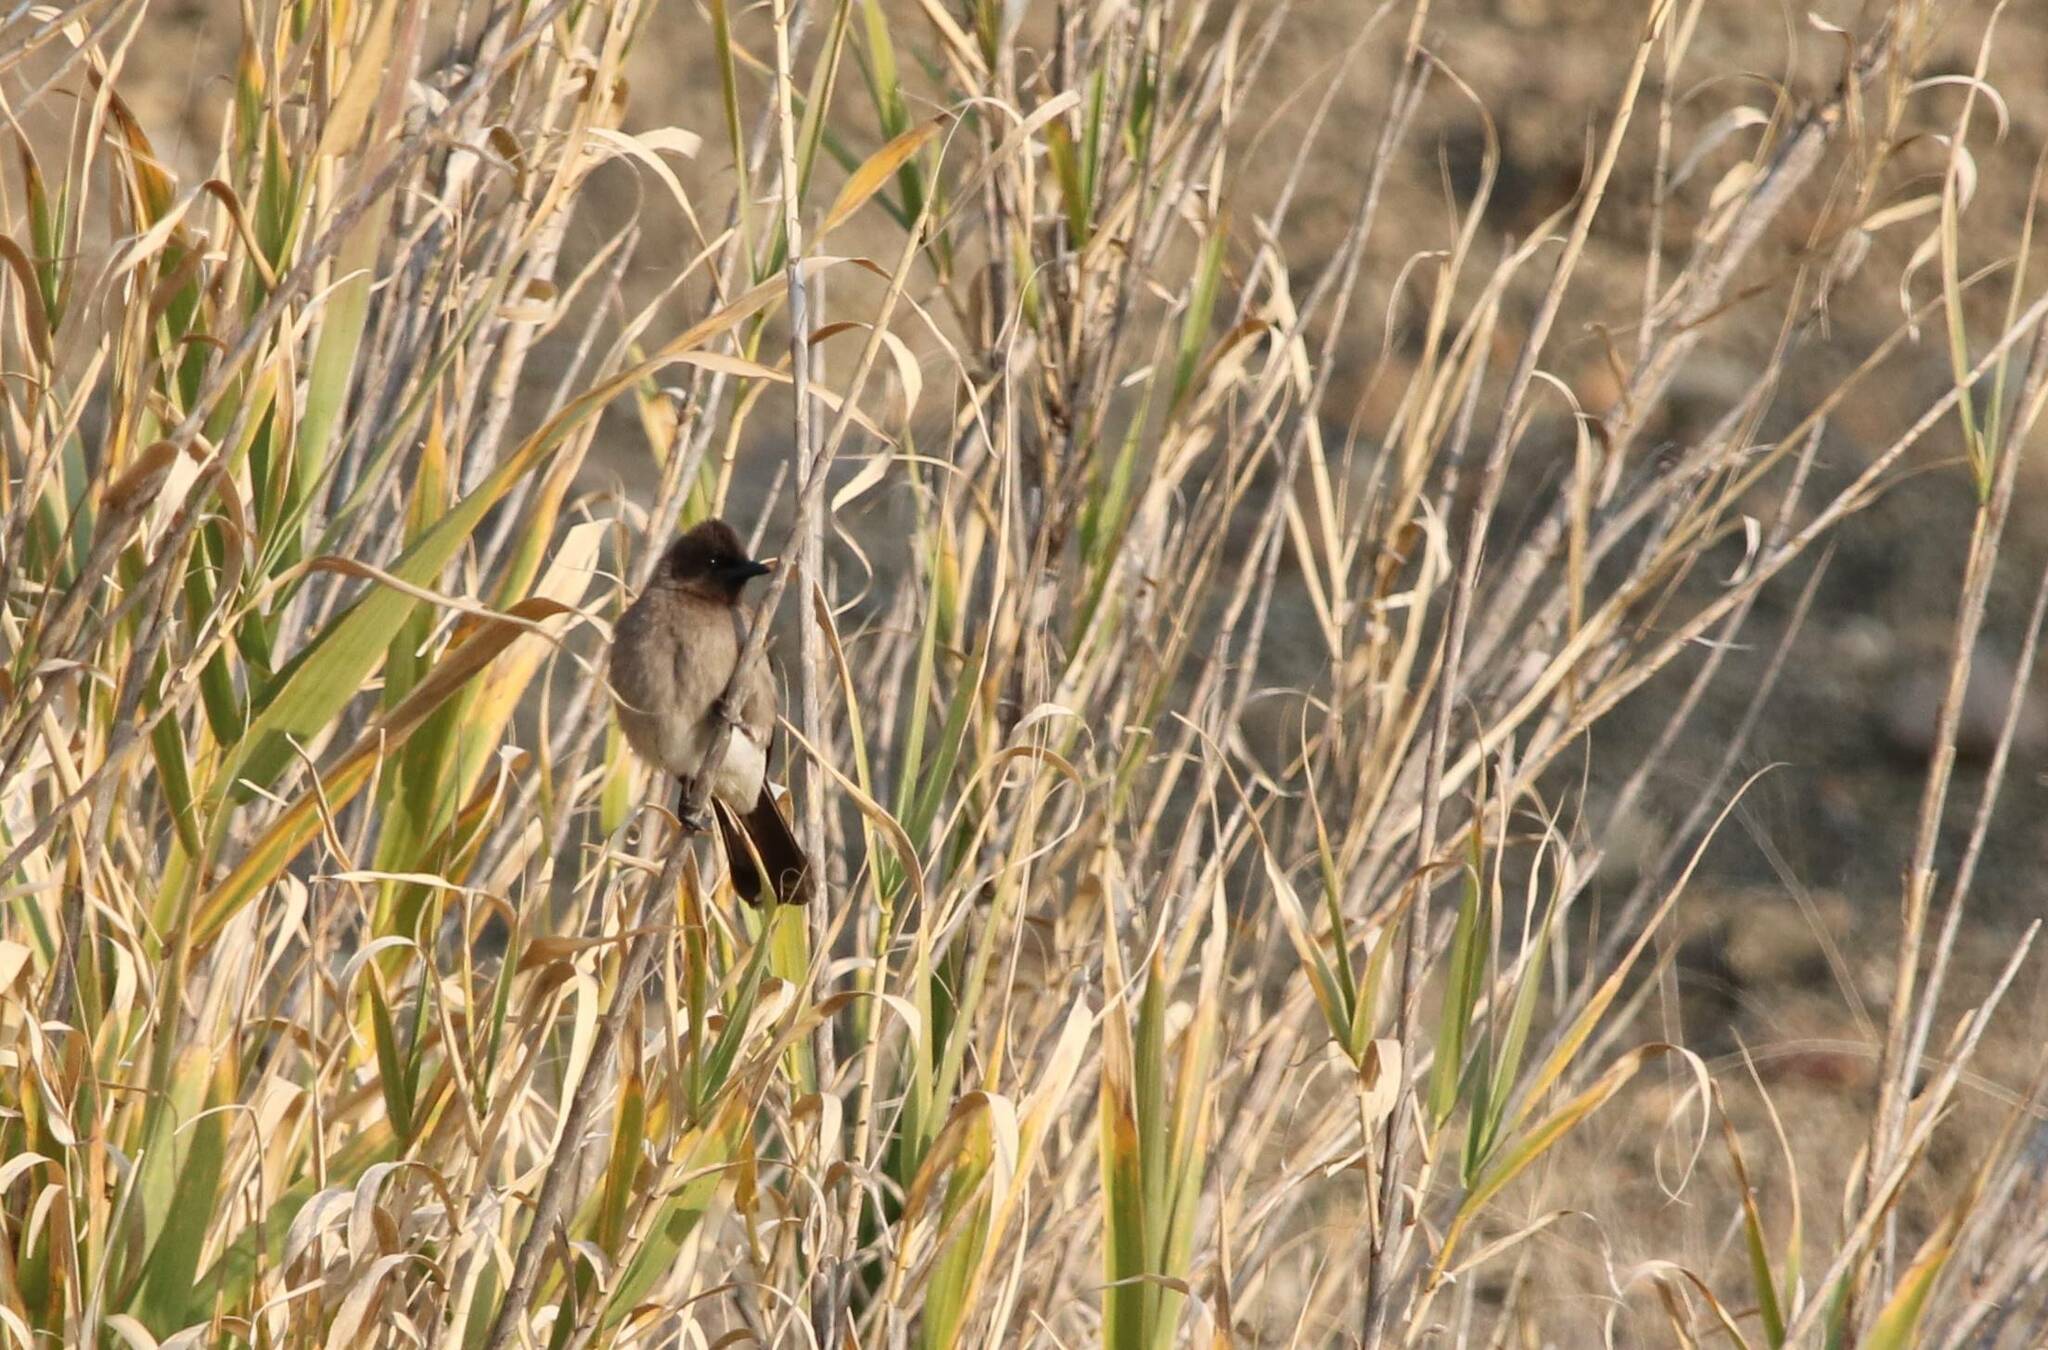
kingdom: Animalia
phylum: Chordata
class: Aves
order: Passeriformes
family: Pycnonotidae
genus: Pycnonotus
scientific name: Pycnonotus barbatus
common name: Common bulbul
